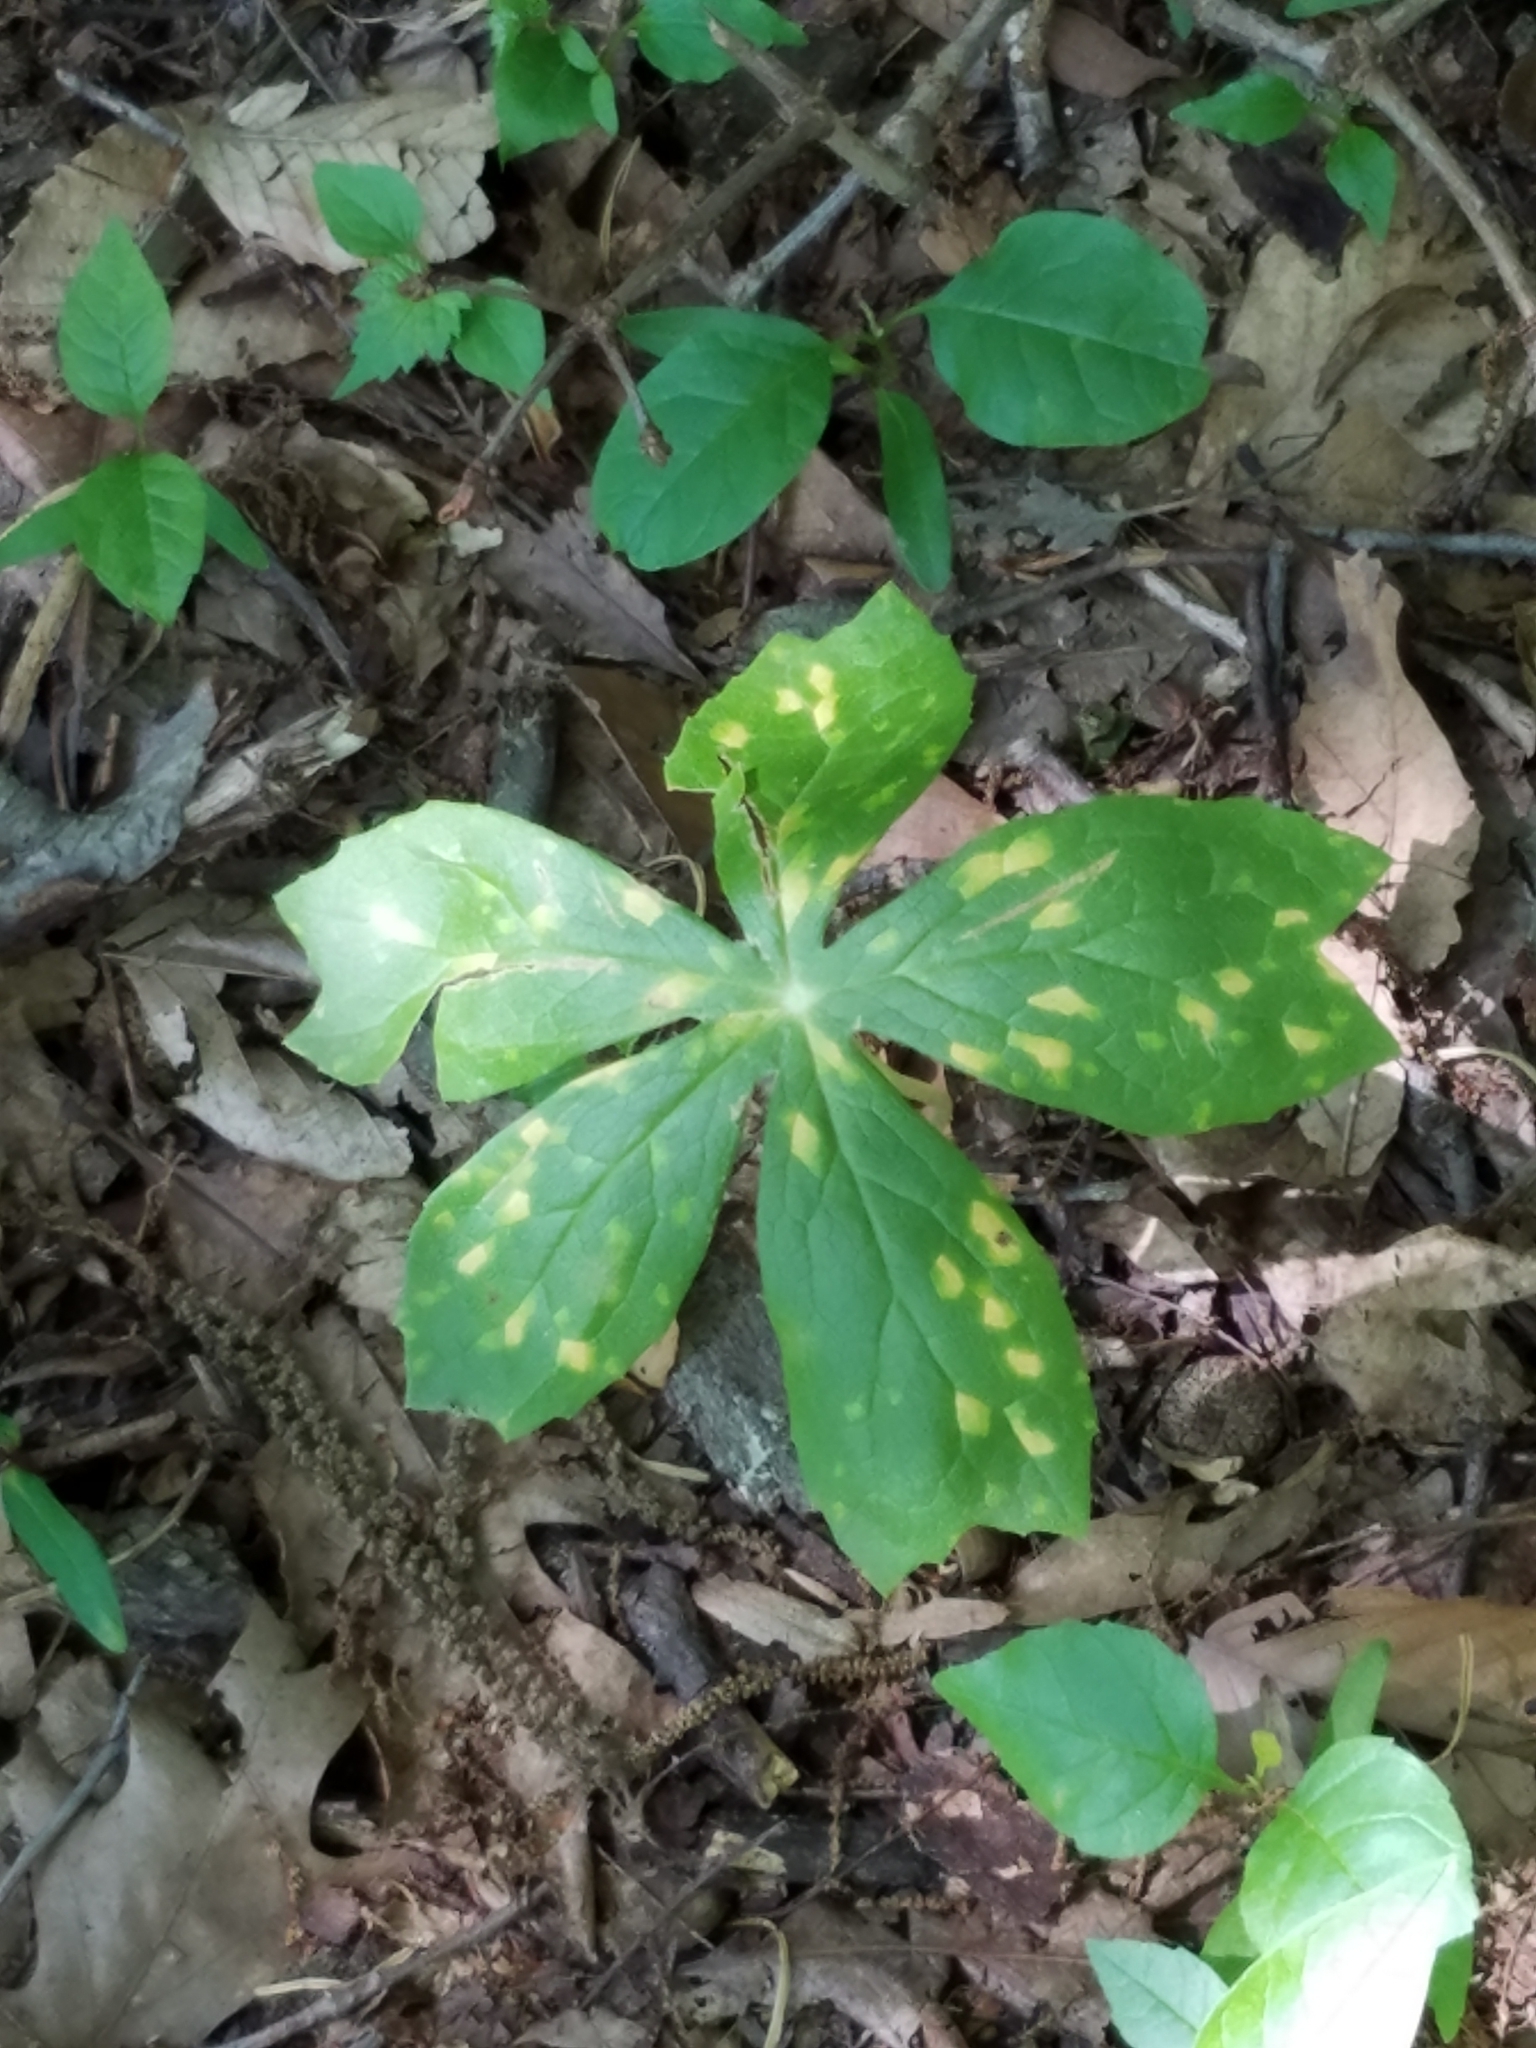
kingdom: Fungi
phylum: Basidiomycota
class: Pucciniomycetes
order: Pucciniales
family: Pucciniaceae
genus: Puccinia
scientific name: Puccinia podophylli
